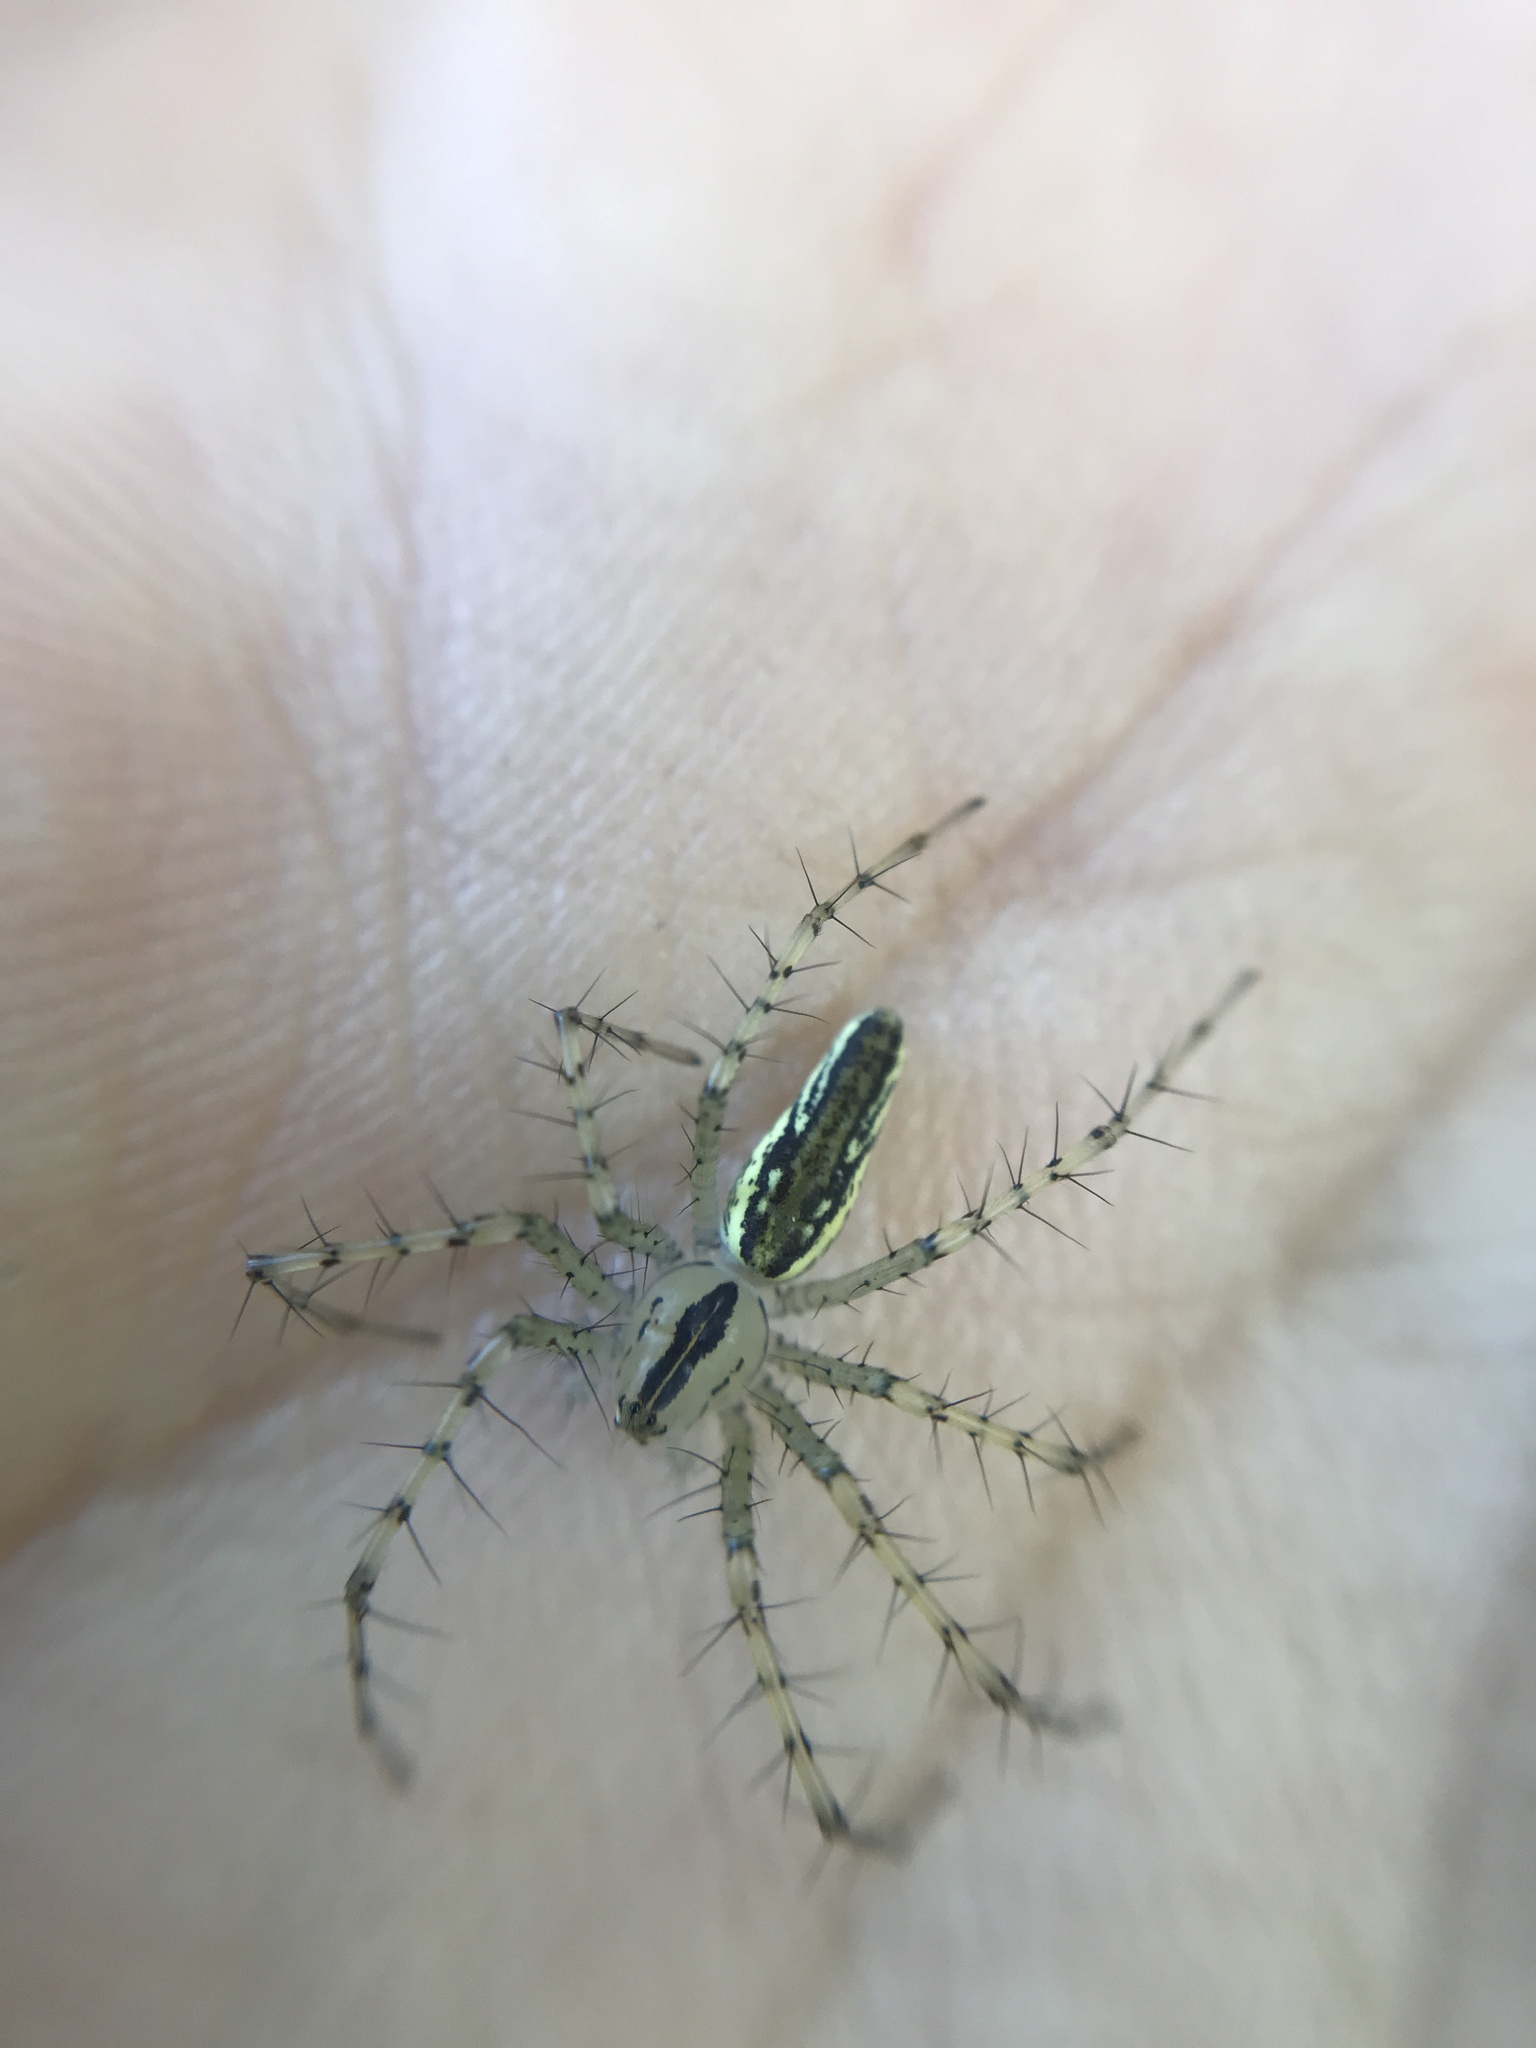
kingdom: Animalia
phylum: Arthropoda
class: Arachnida
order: Araneae
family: Oxyopidae
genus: Peucetia
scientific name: Peucetia rubrolineata
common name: Lynx spiders
